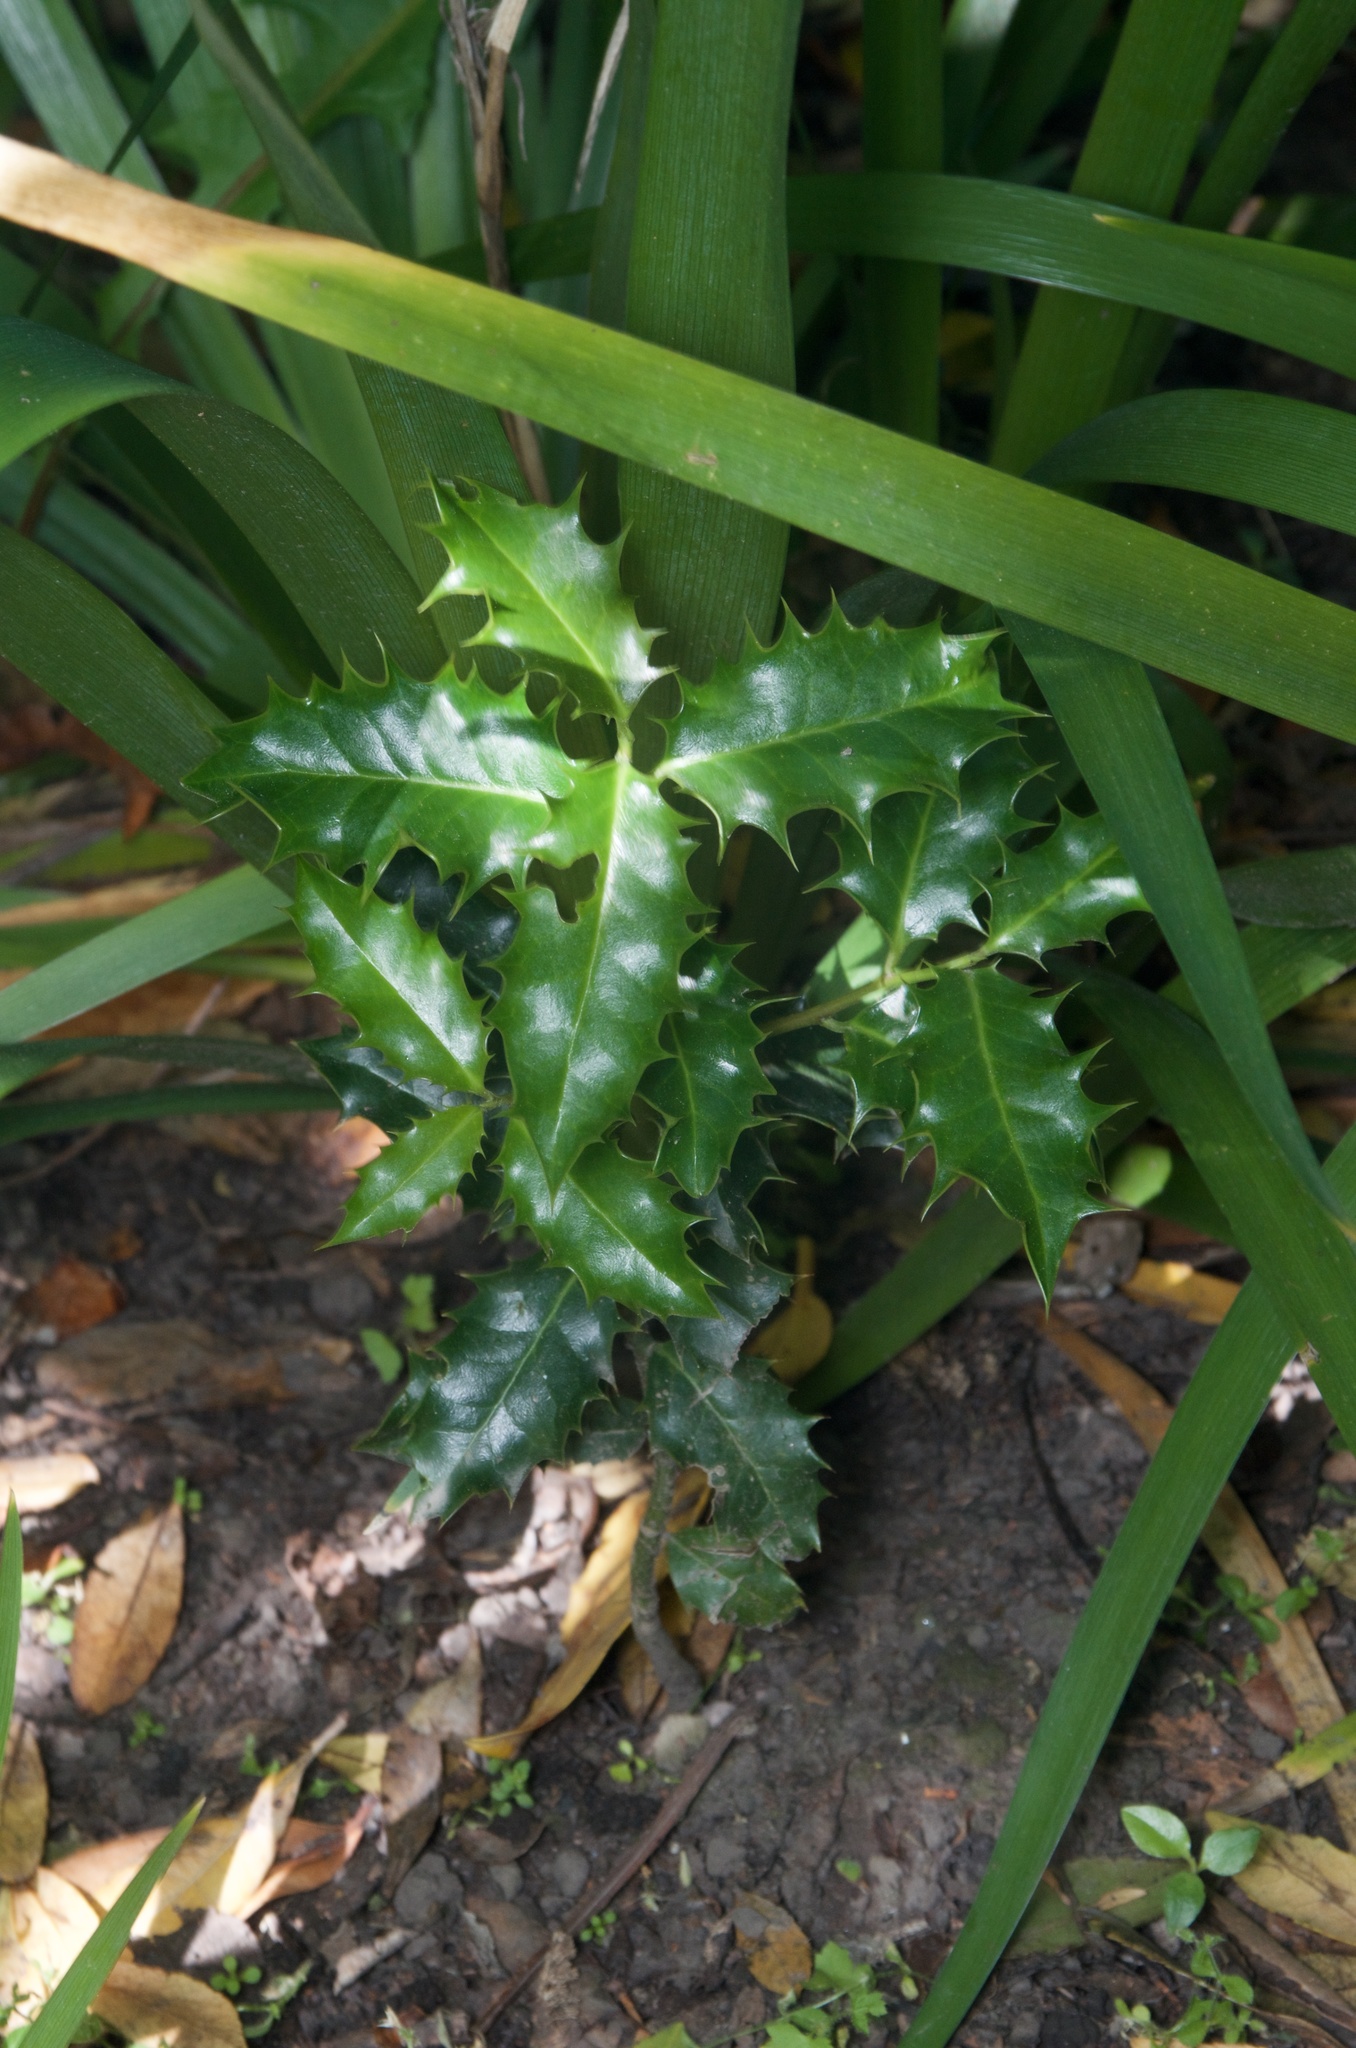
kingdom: Plantae
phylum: Tracheophyta
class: Magnoliopsida
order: Aquifoliales
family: Aquifoliaceae
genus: Ilex
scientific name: Ilex aquifolium
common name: English holly
